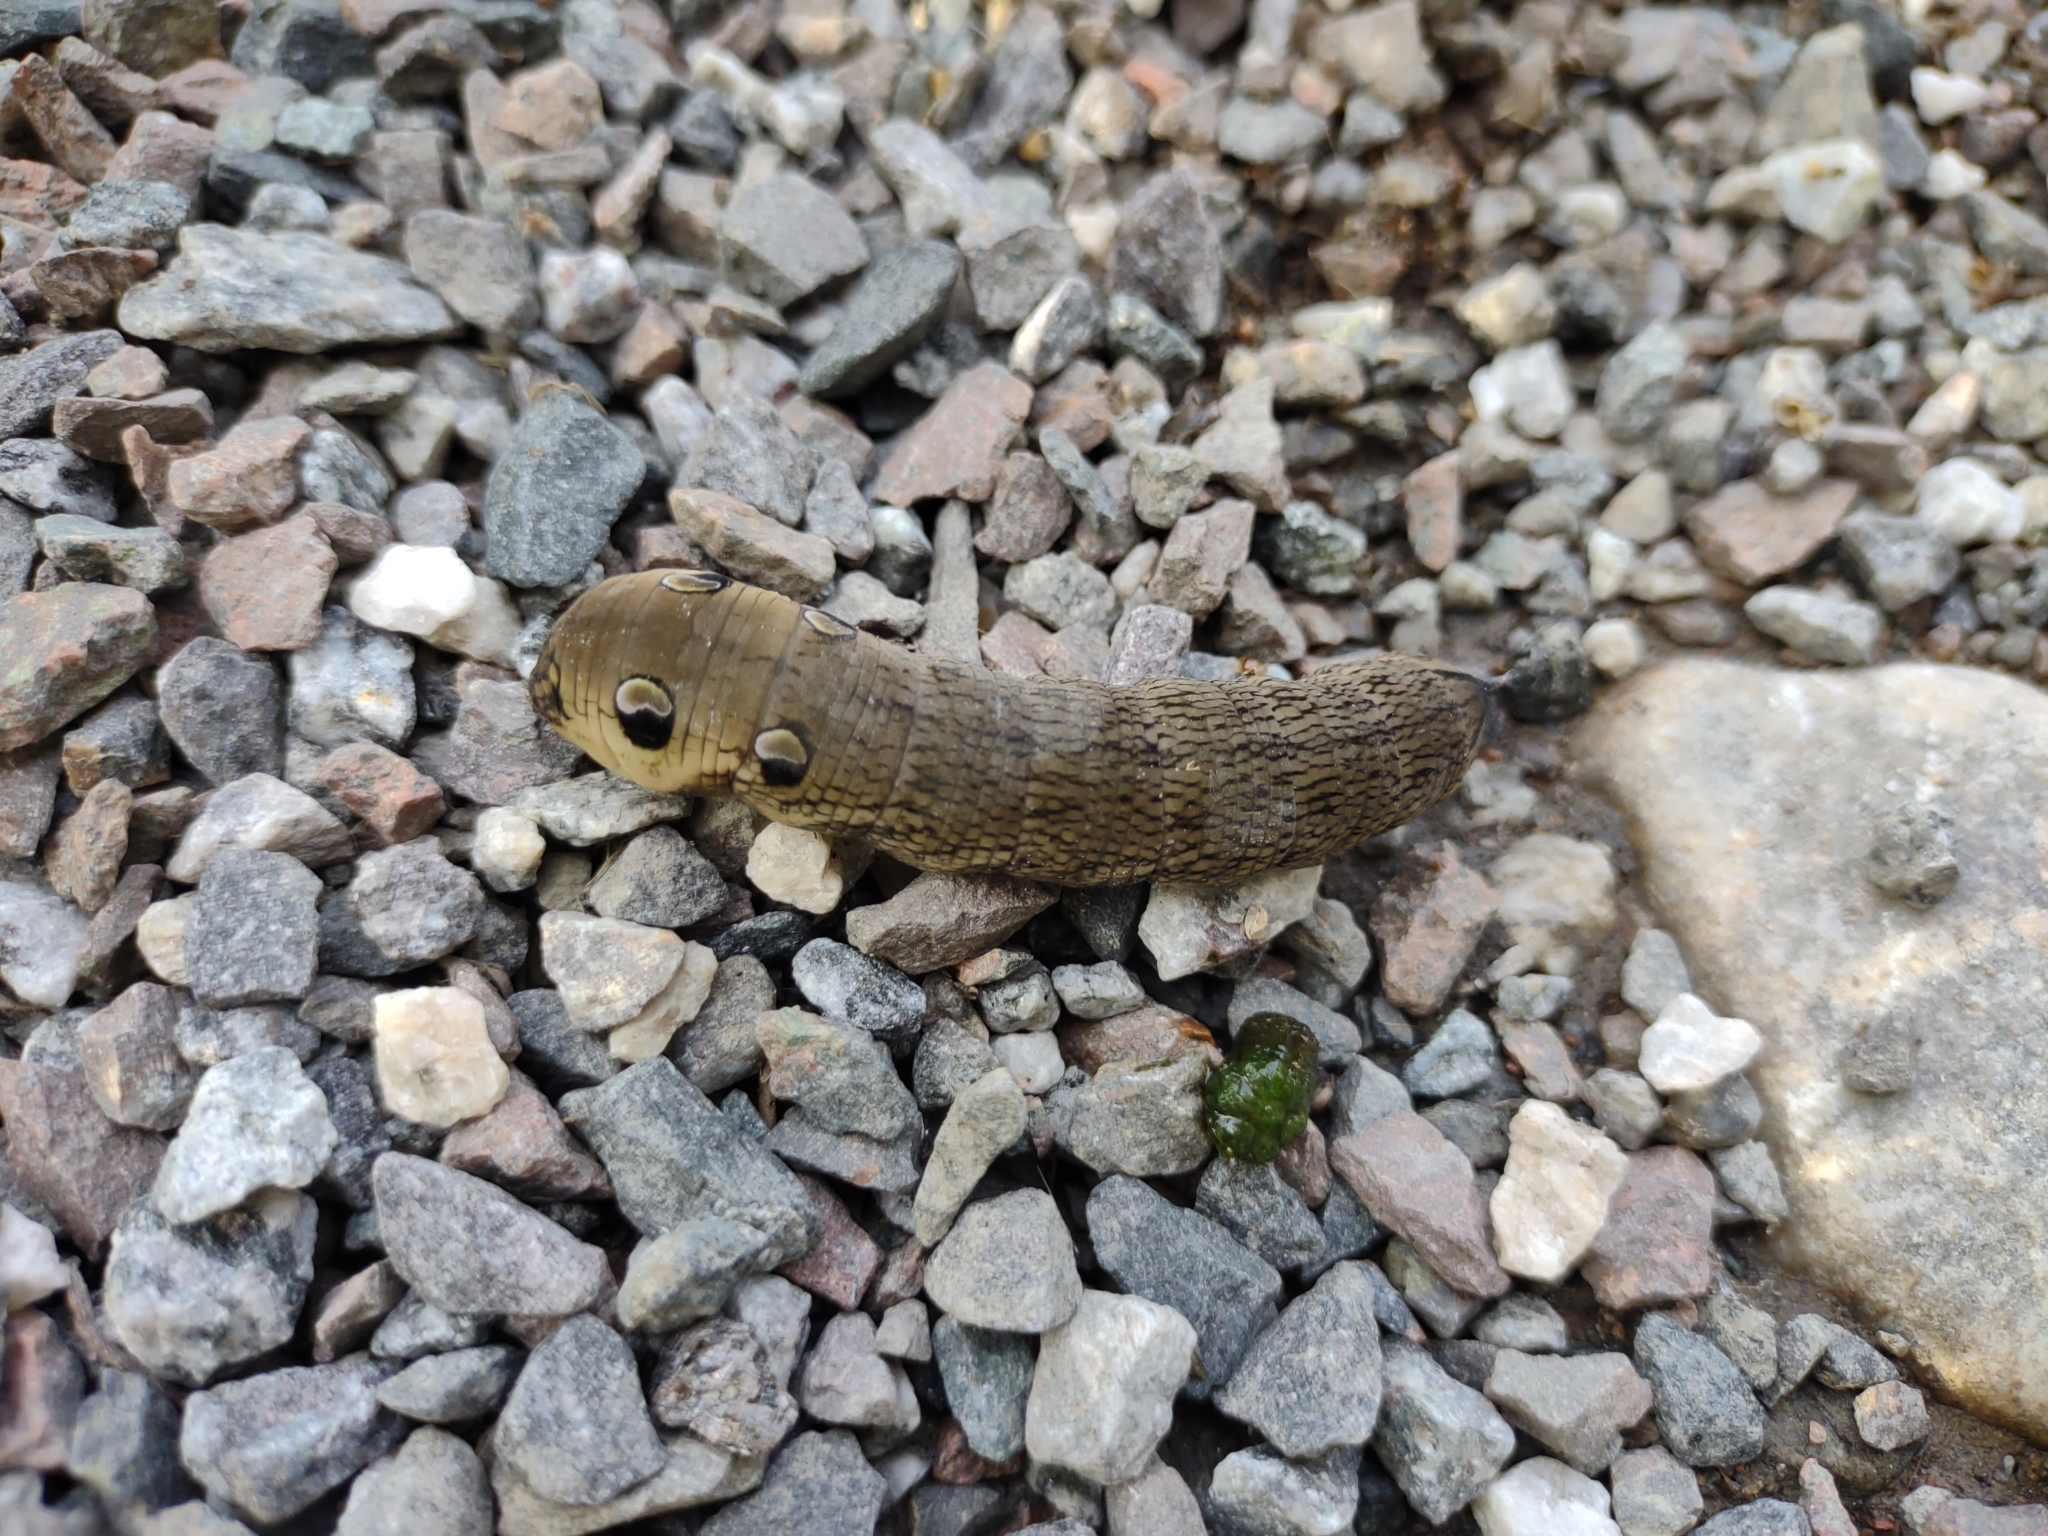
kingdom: Animalia
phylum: Arthropoda
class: Insecta
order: Lepidoptera
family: Sphingidae
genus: Deilephila
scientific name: Deilephila elpenor
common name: Elephant hawk-moth
